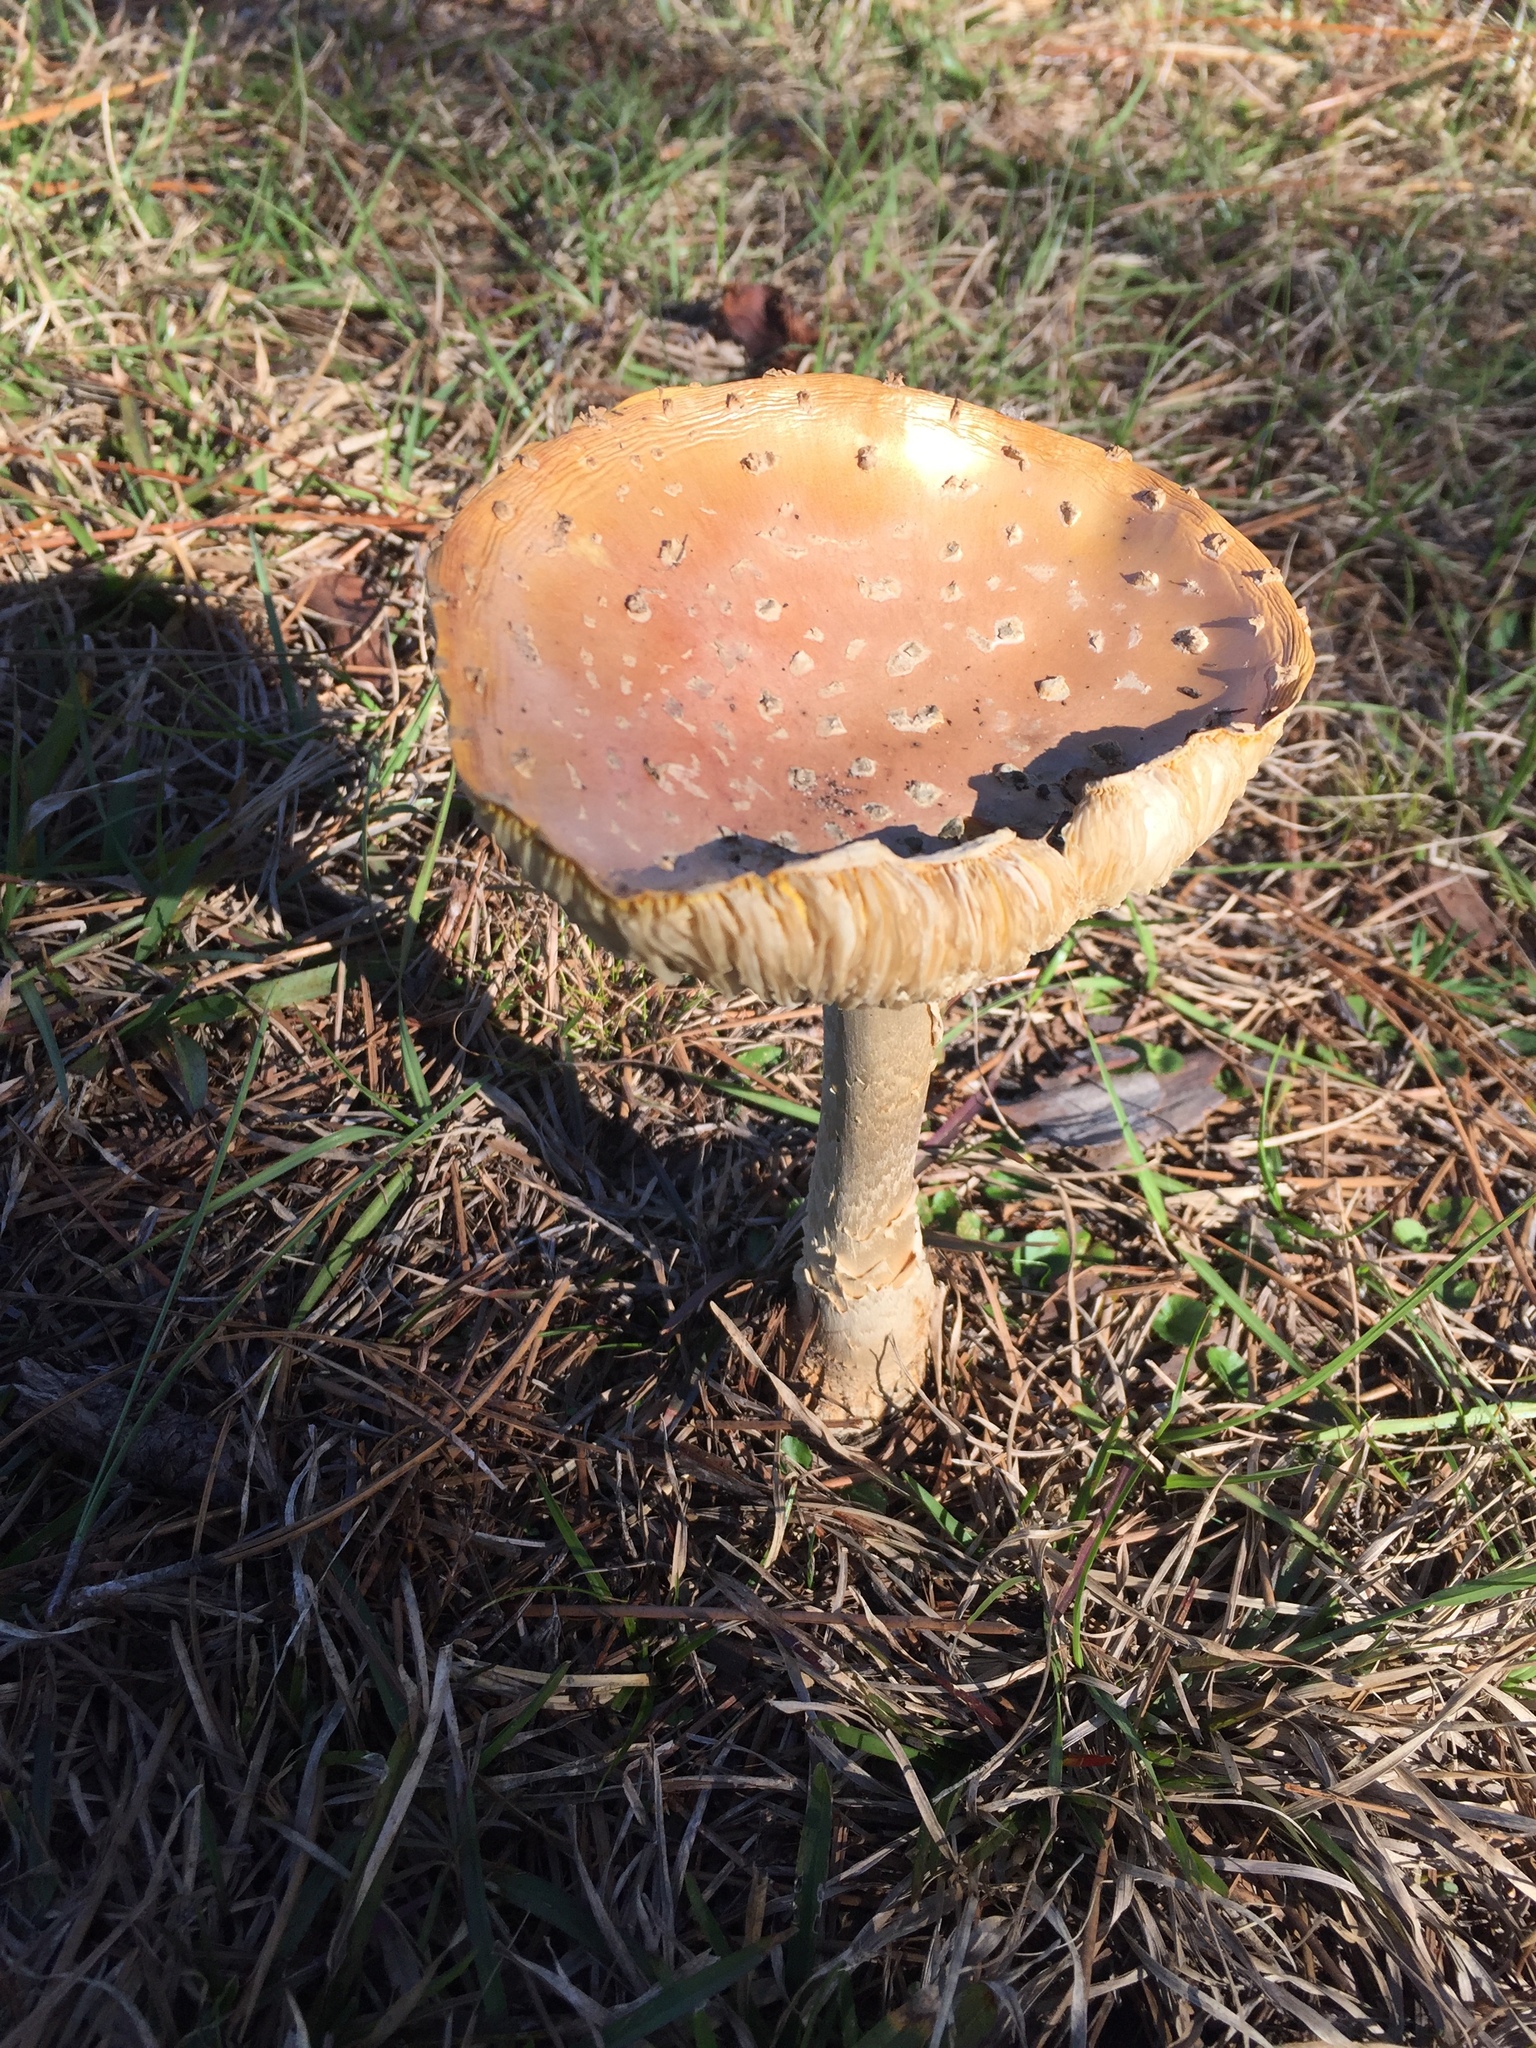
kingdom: Fungi
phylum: Basidiomycota
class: Agaricomycetes
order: Agaricales
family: Amanitaceae
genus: Amanita
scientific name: Amanita persicina
